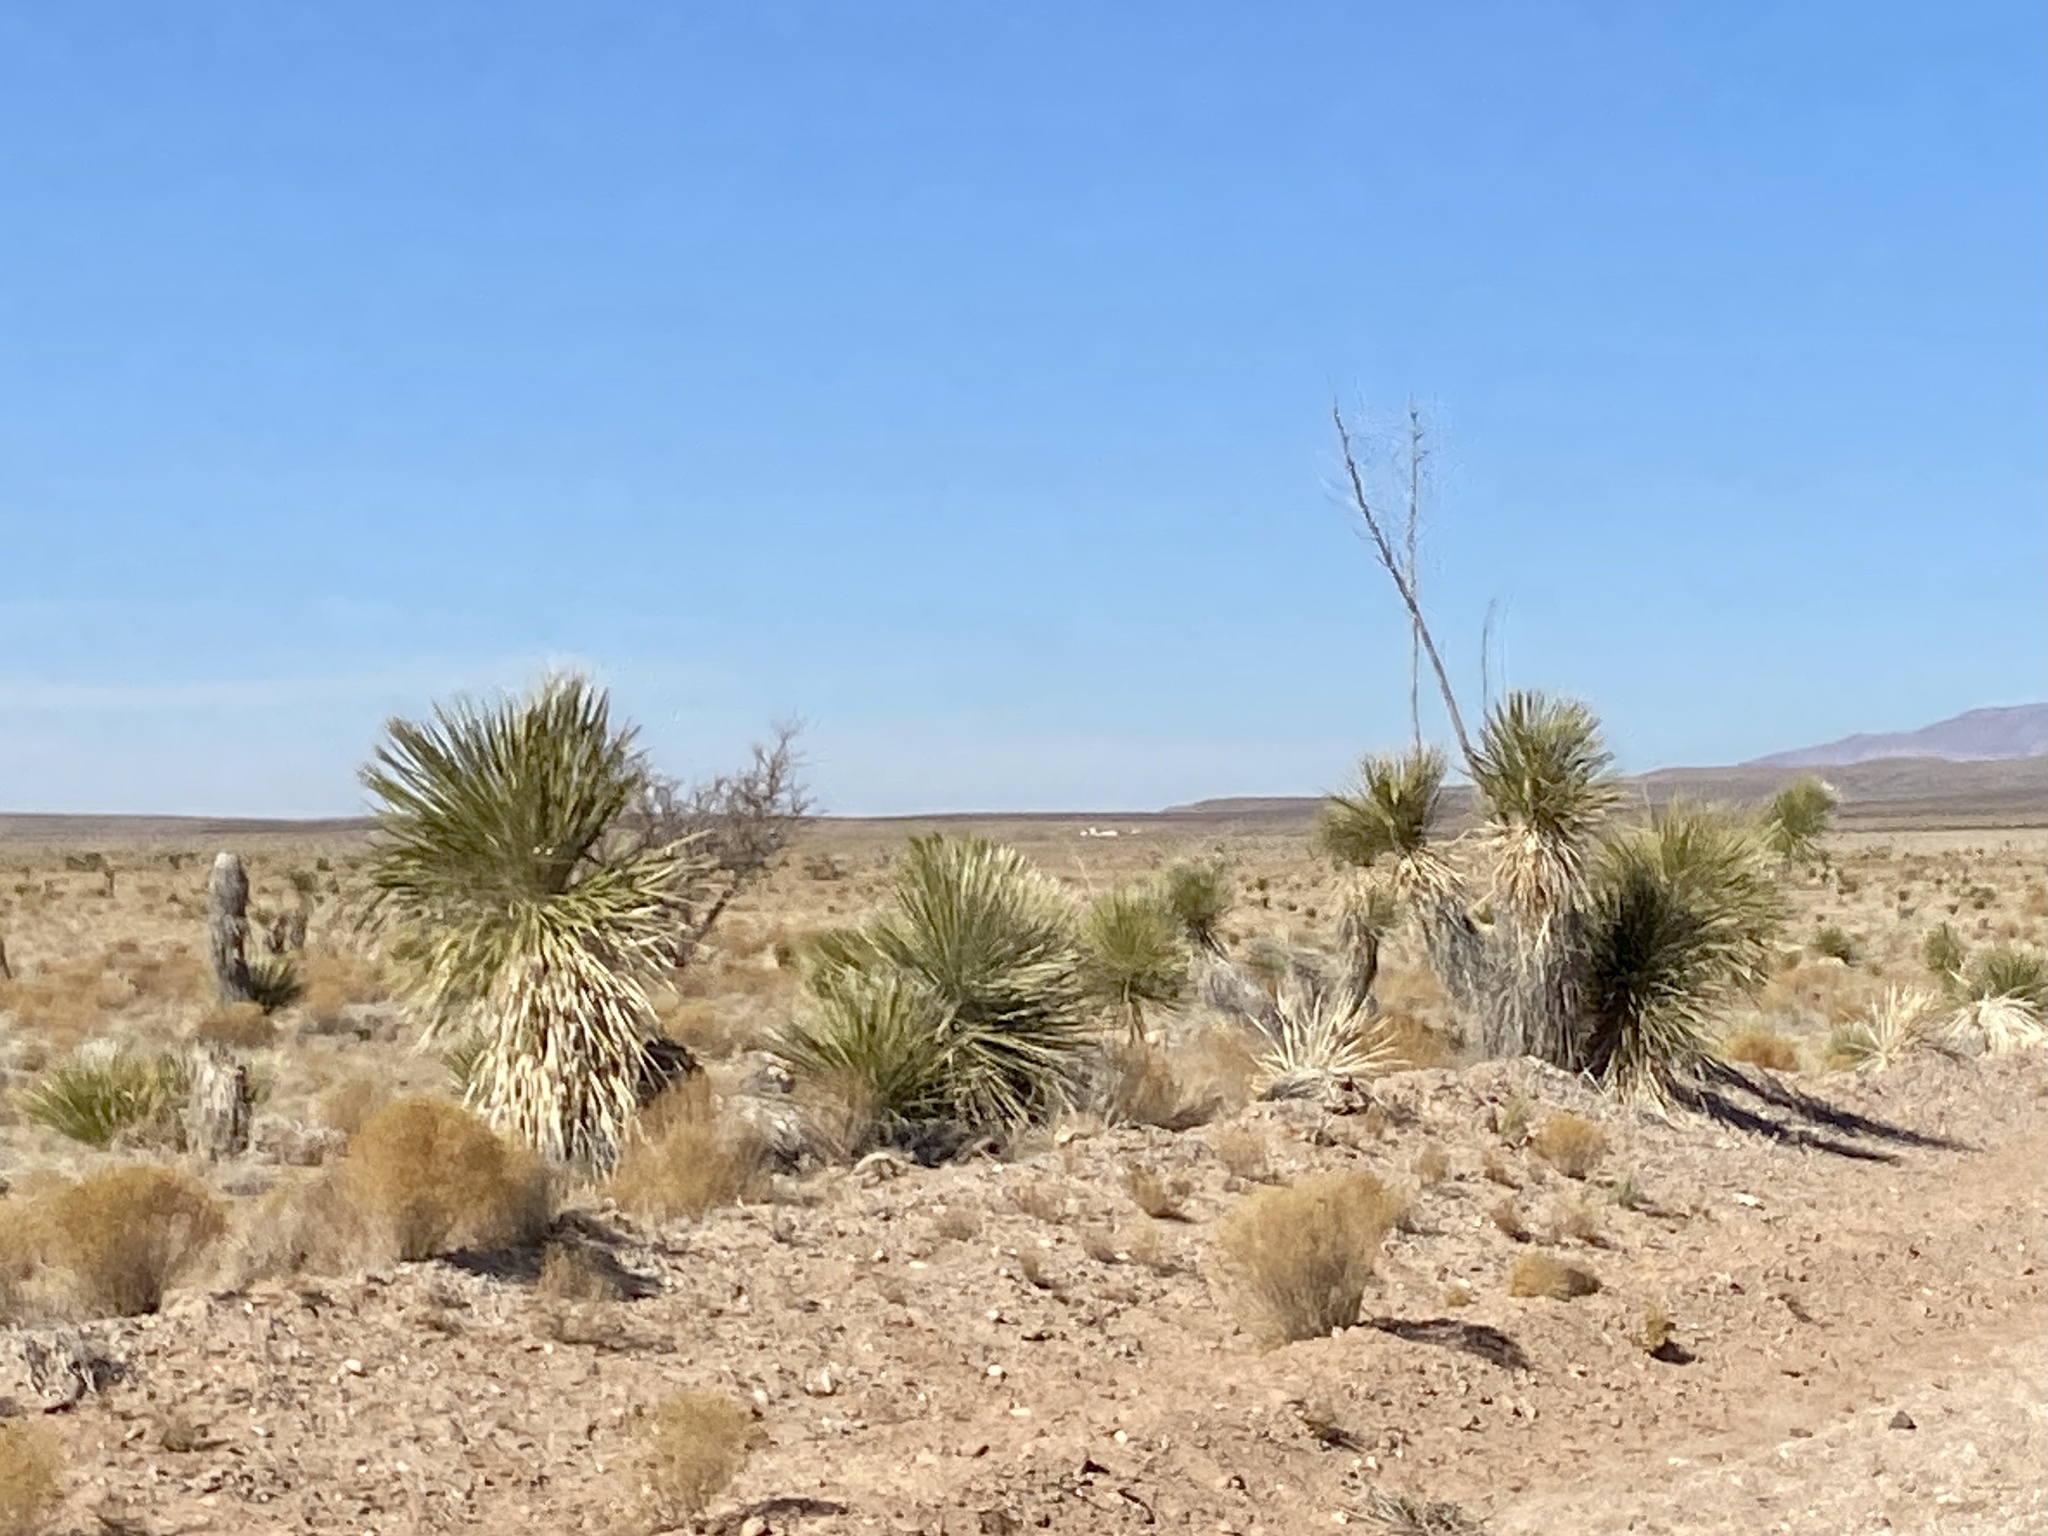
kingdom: Plantae
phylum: Tracheophyta
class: Liliopsida
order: Asparagales
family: Asparagaceae
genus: Yucca
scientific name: Yucca elata
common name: Palmella
